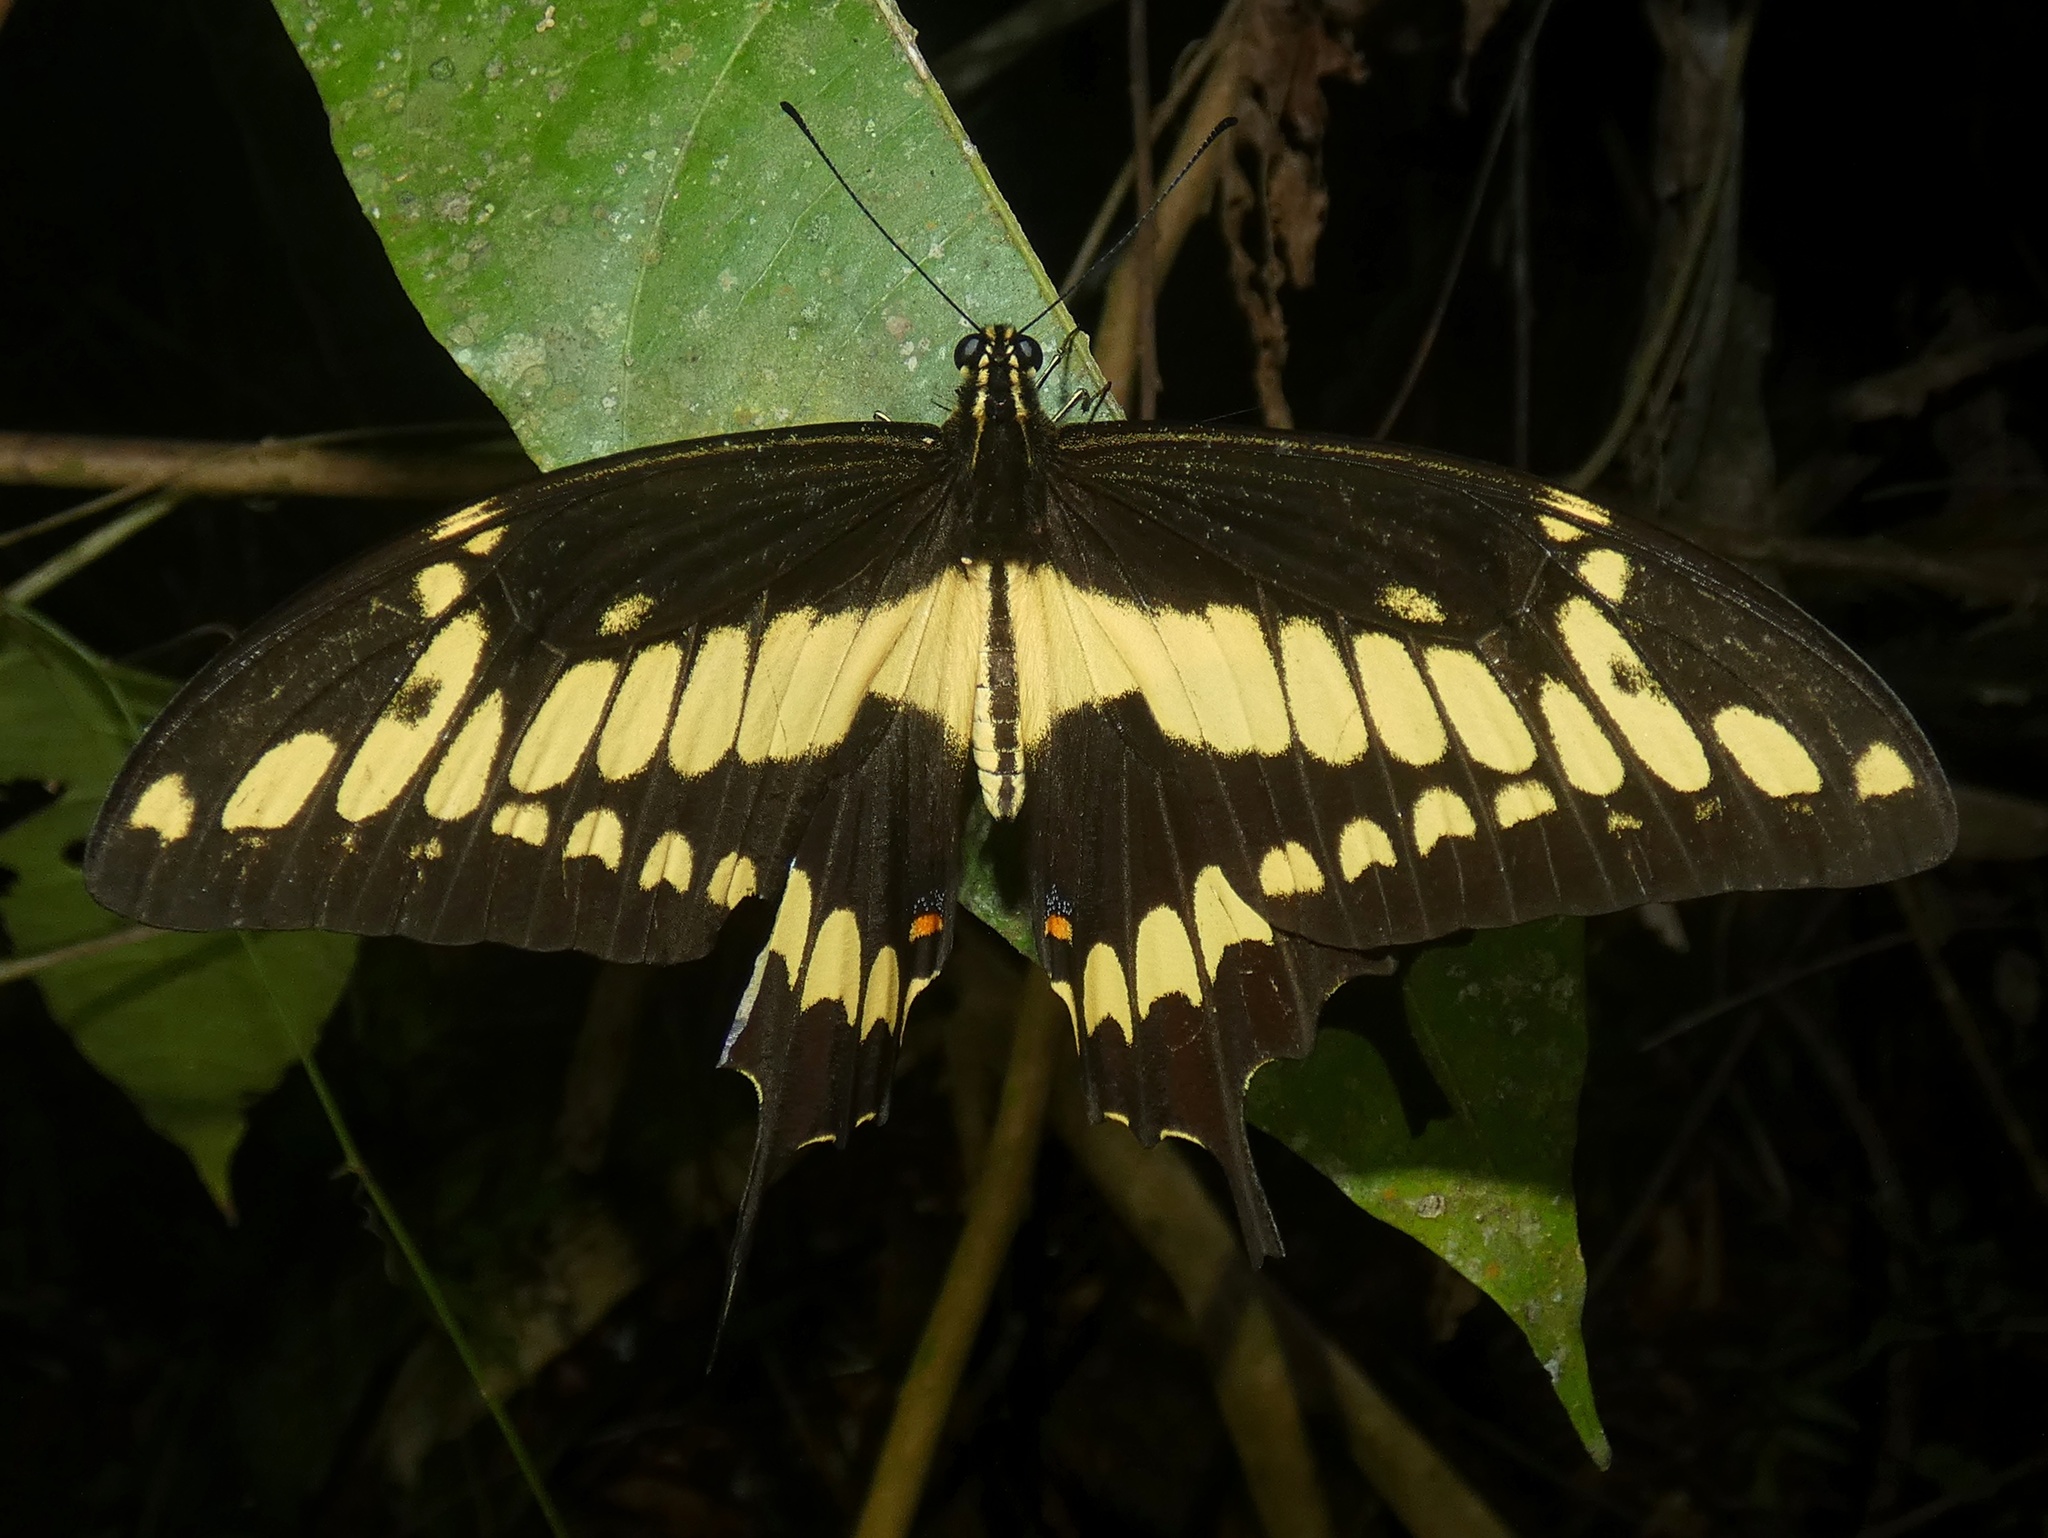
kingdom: Animalia
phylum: Arthropoda
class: Insecta
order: Lepidoptera
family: Papilionidae
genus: Papilio
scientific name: Papilio thoas
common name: King swallowtail
